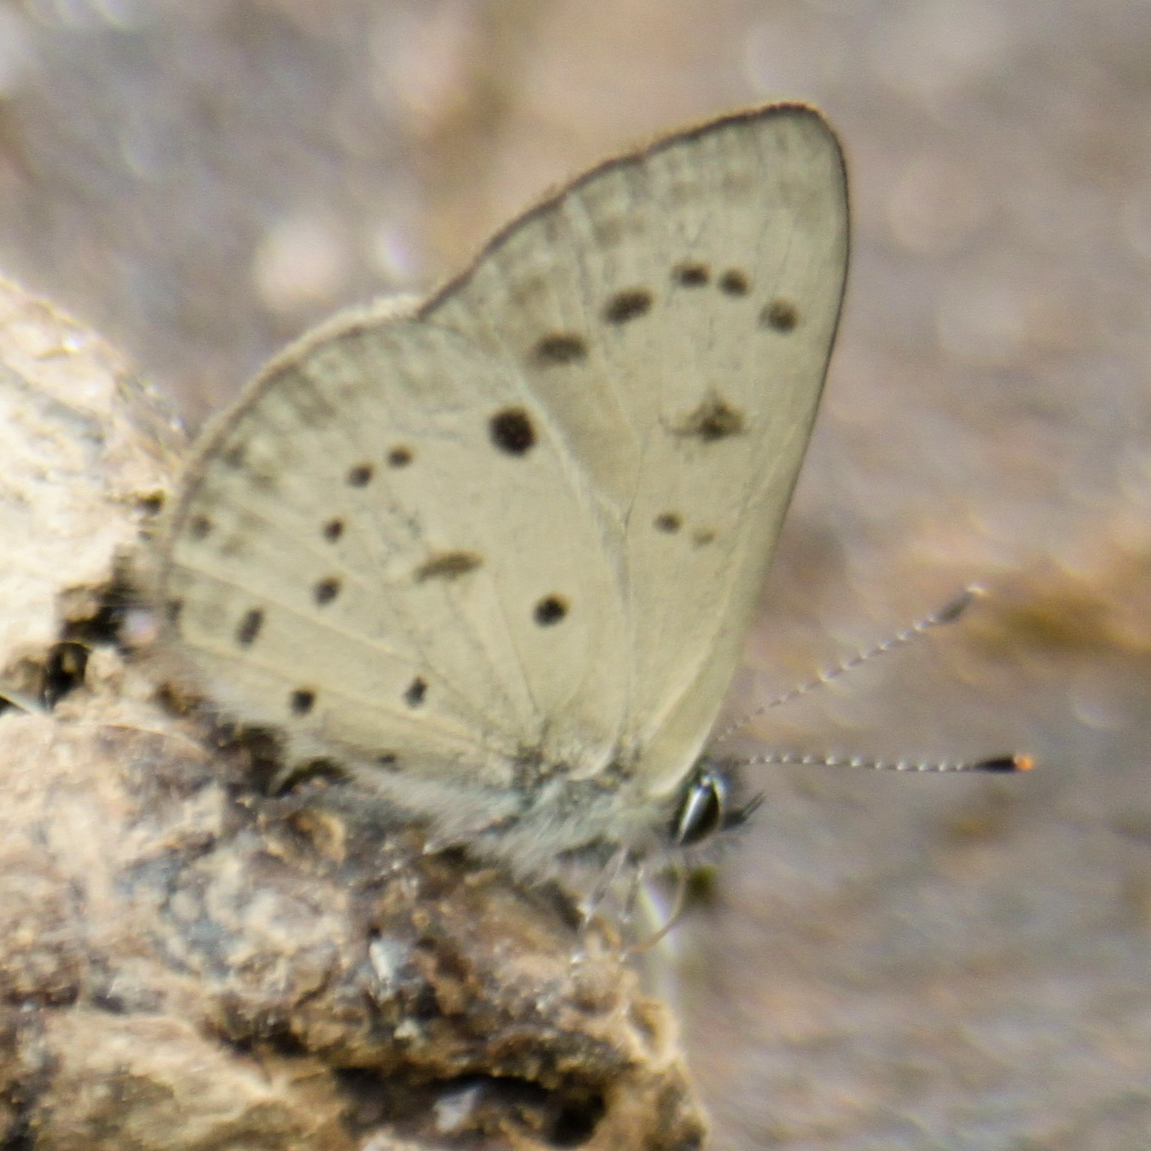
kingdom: Animalia
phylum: Arthropoda
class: Insecta
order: Lepidoptera
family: Lycaenidae
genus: Una
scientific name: Una usta
